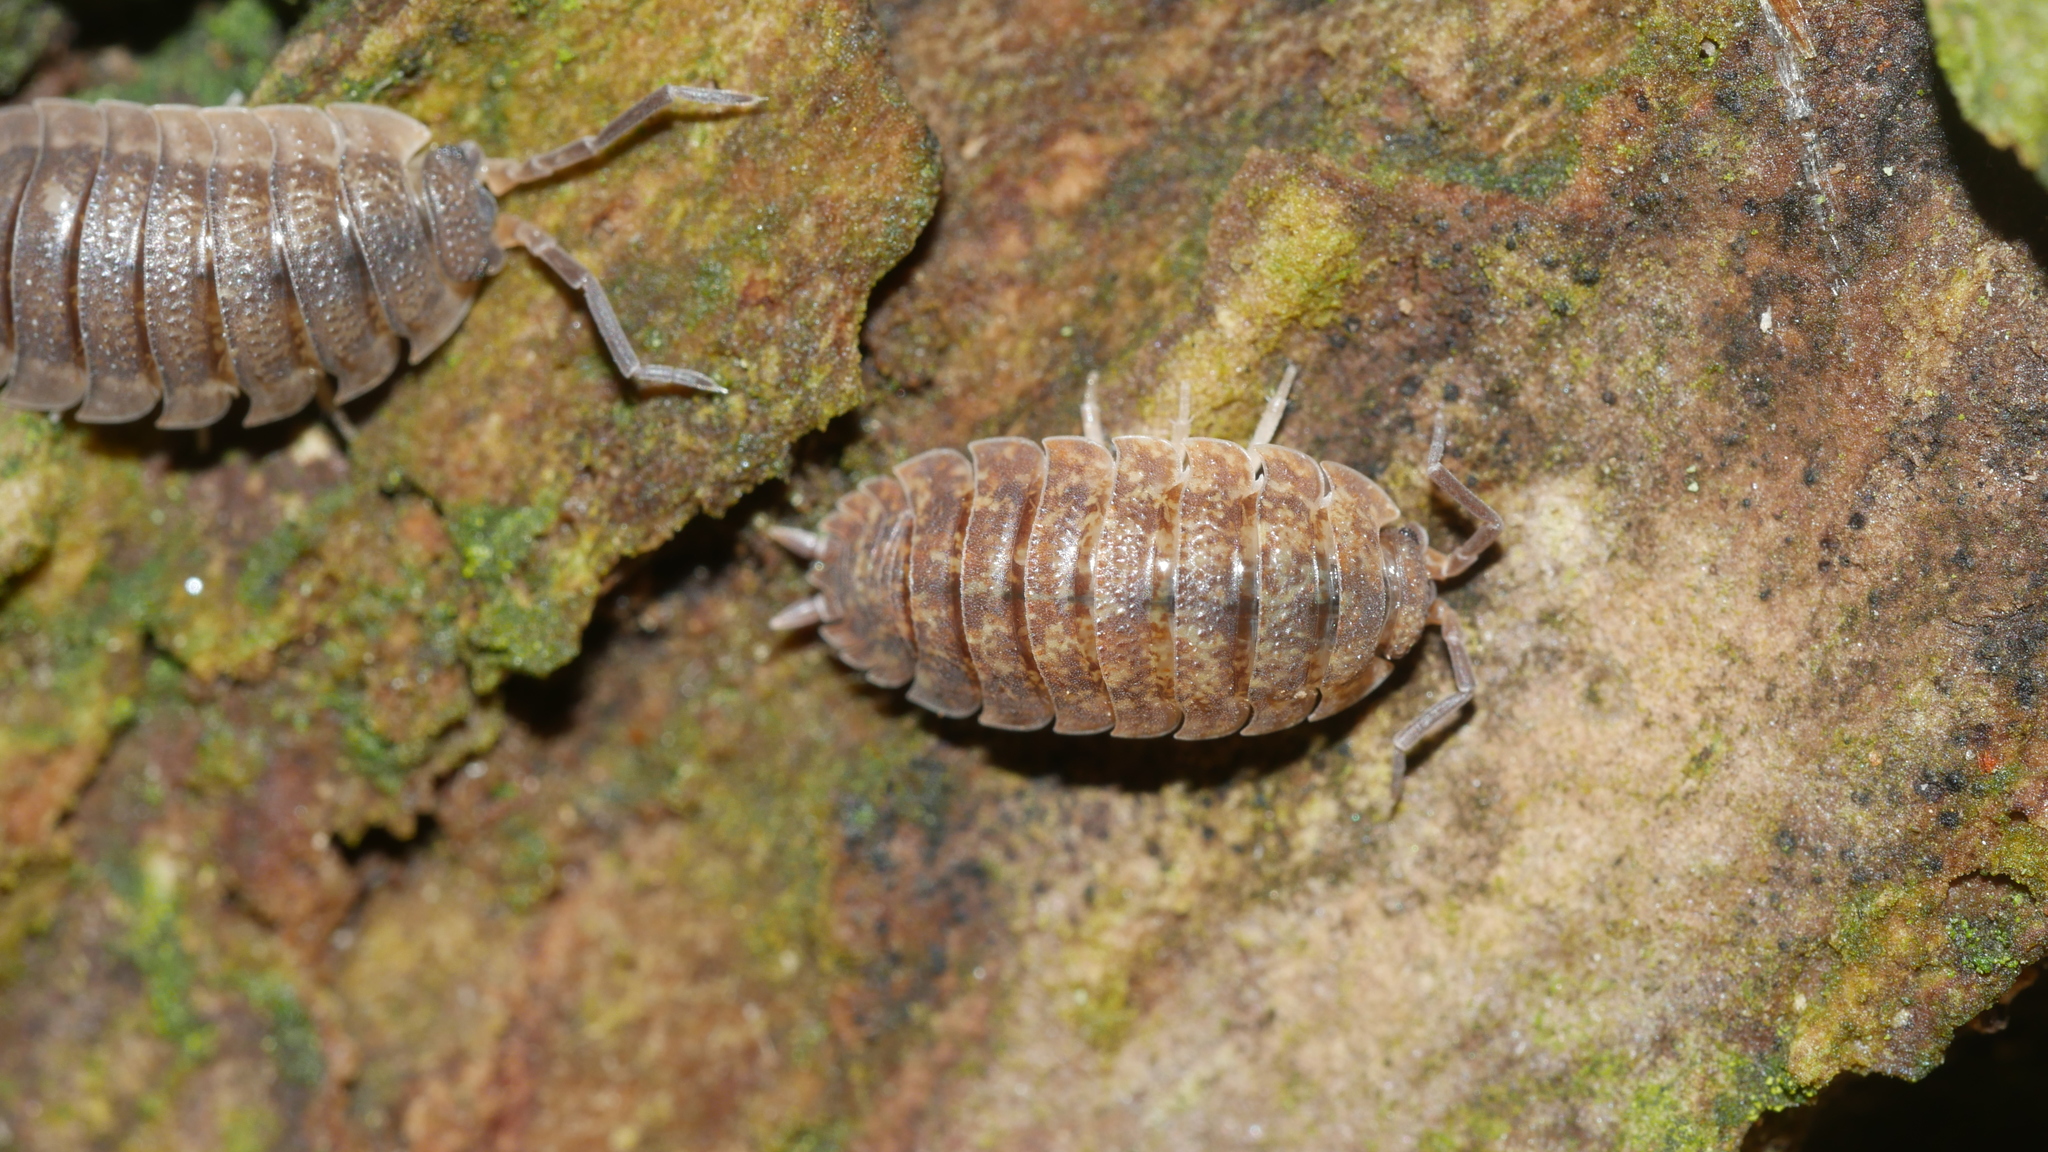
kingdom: Animalia
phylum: Arthropoda
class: Malacostraca
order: Isopoda
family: Porcellionidae
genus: Porcellio
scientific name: Porcellio scaber
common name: Common rough woodlouse
